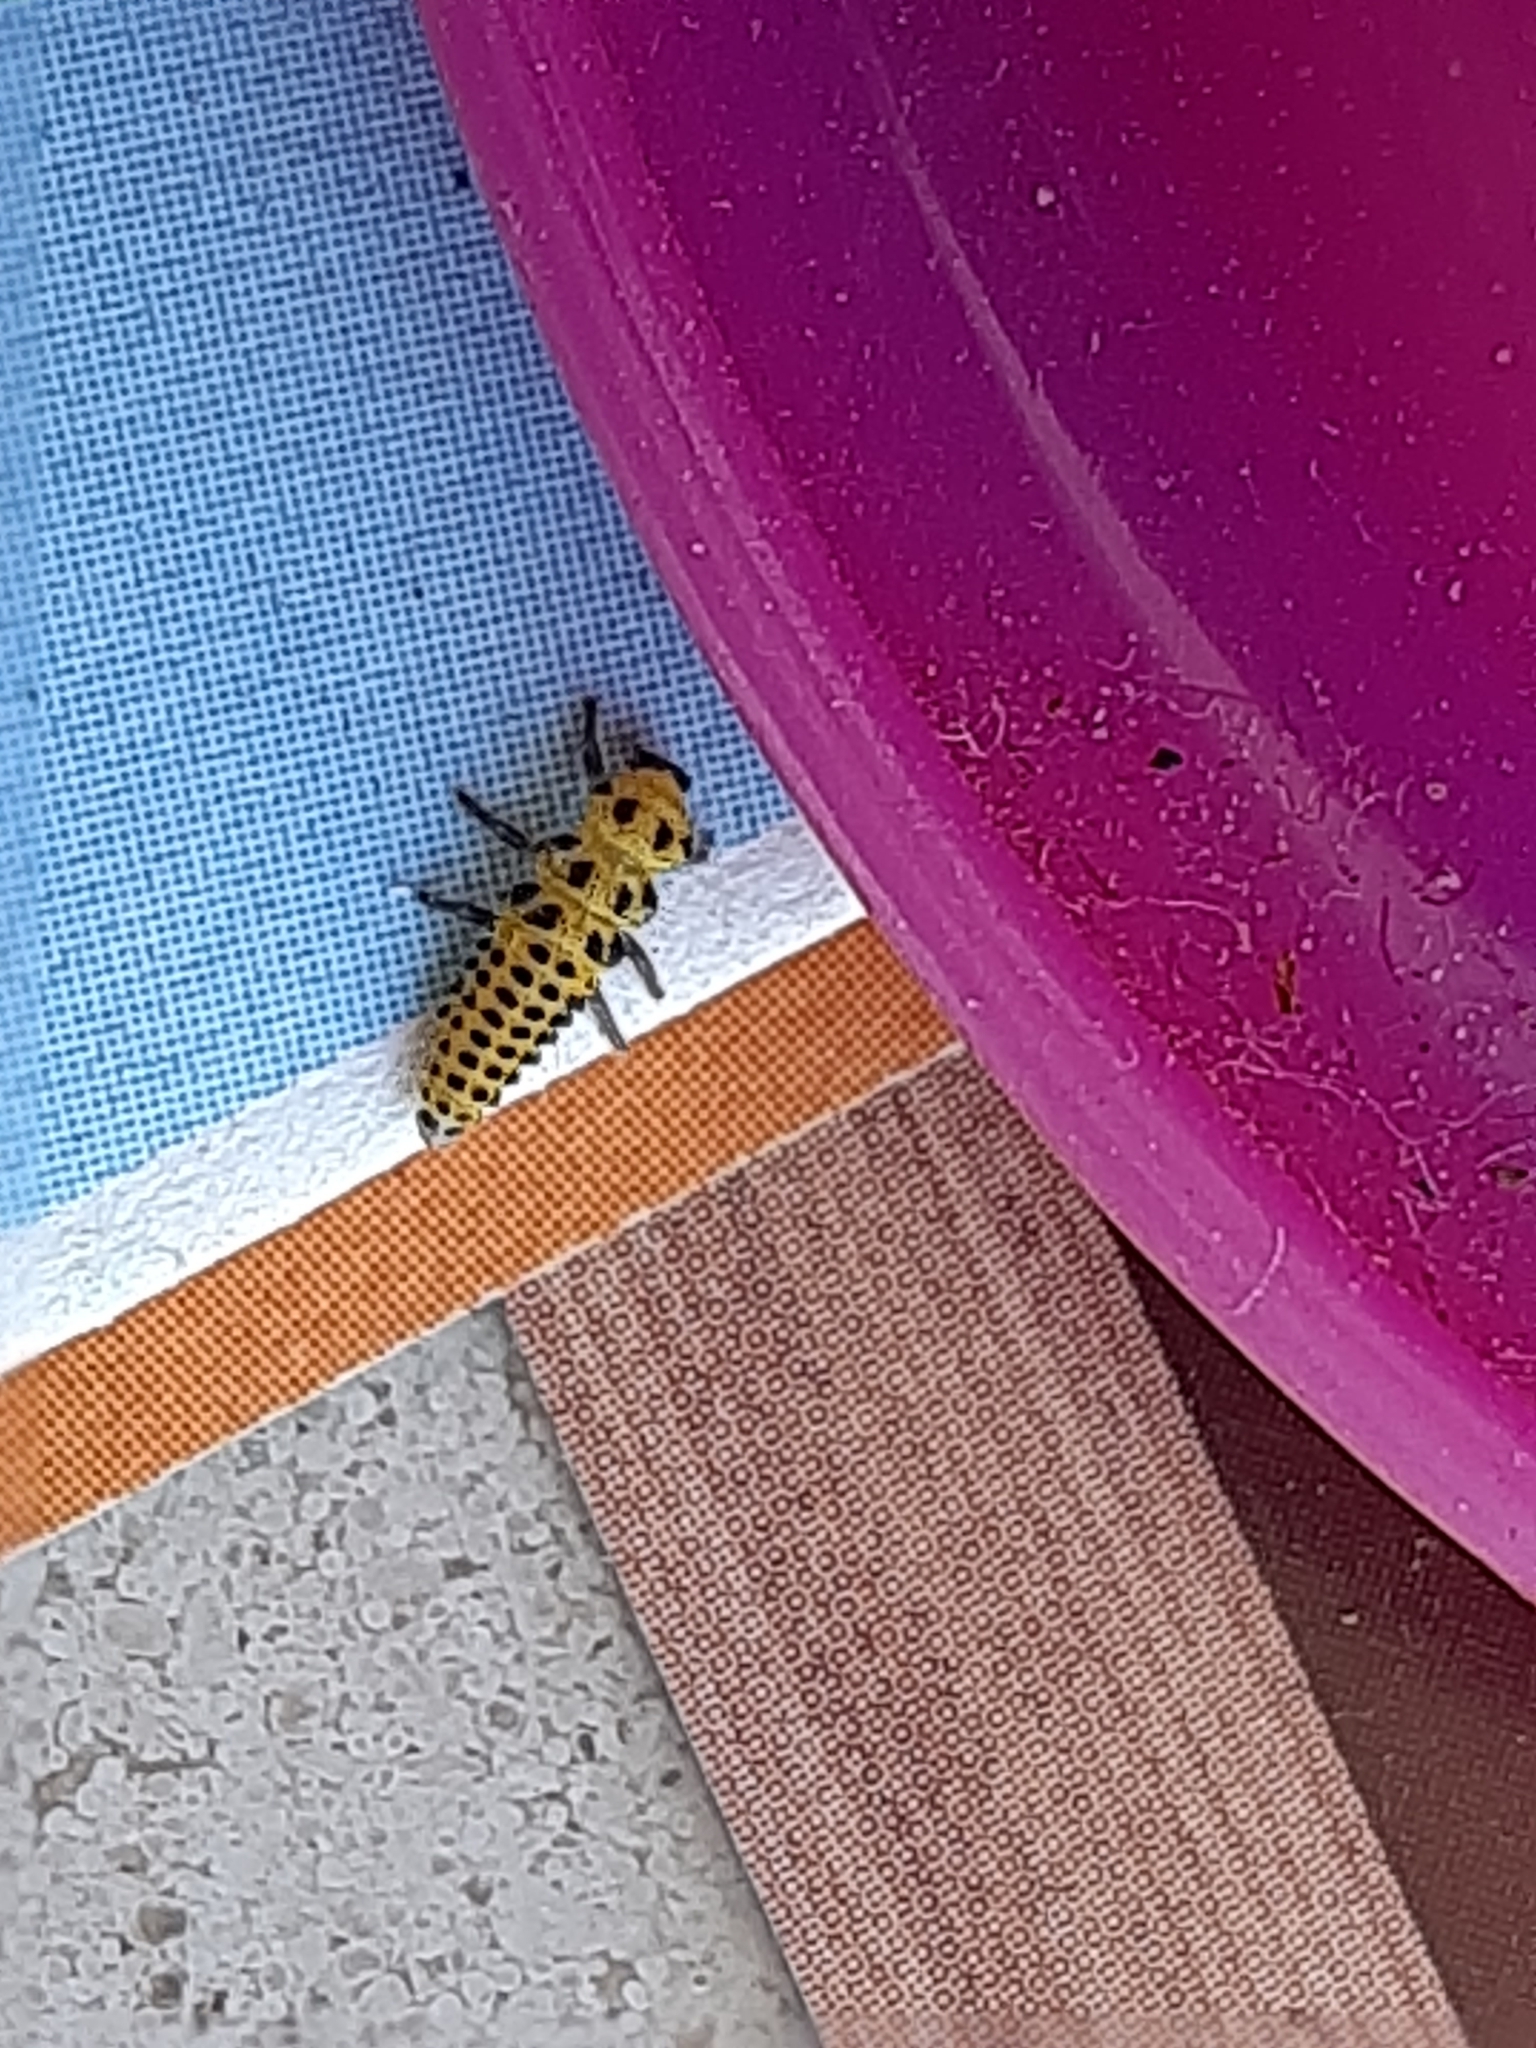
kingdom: Animalia
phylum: Arthropoda
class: Insecta
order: Coleoptera
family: Coccinellidae
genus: Psyllobora
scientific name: Psyllobora vigintiduopunctata
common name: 22-spot ladybird
